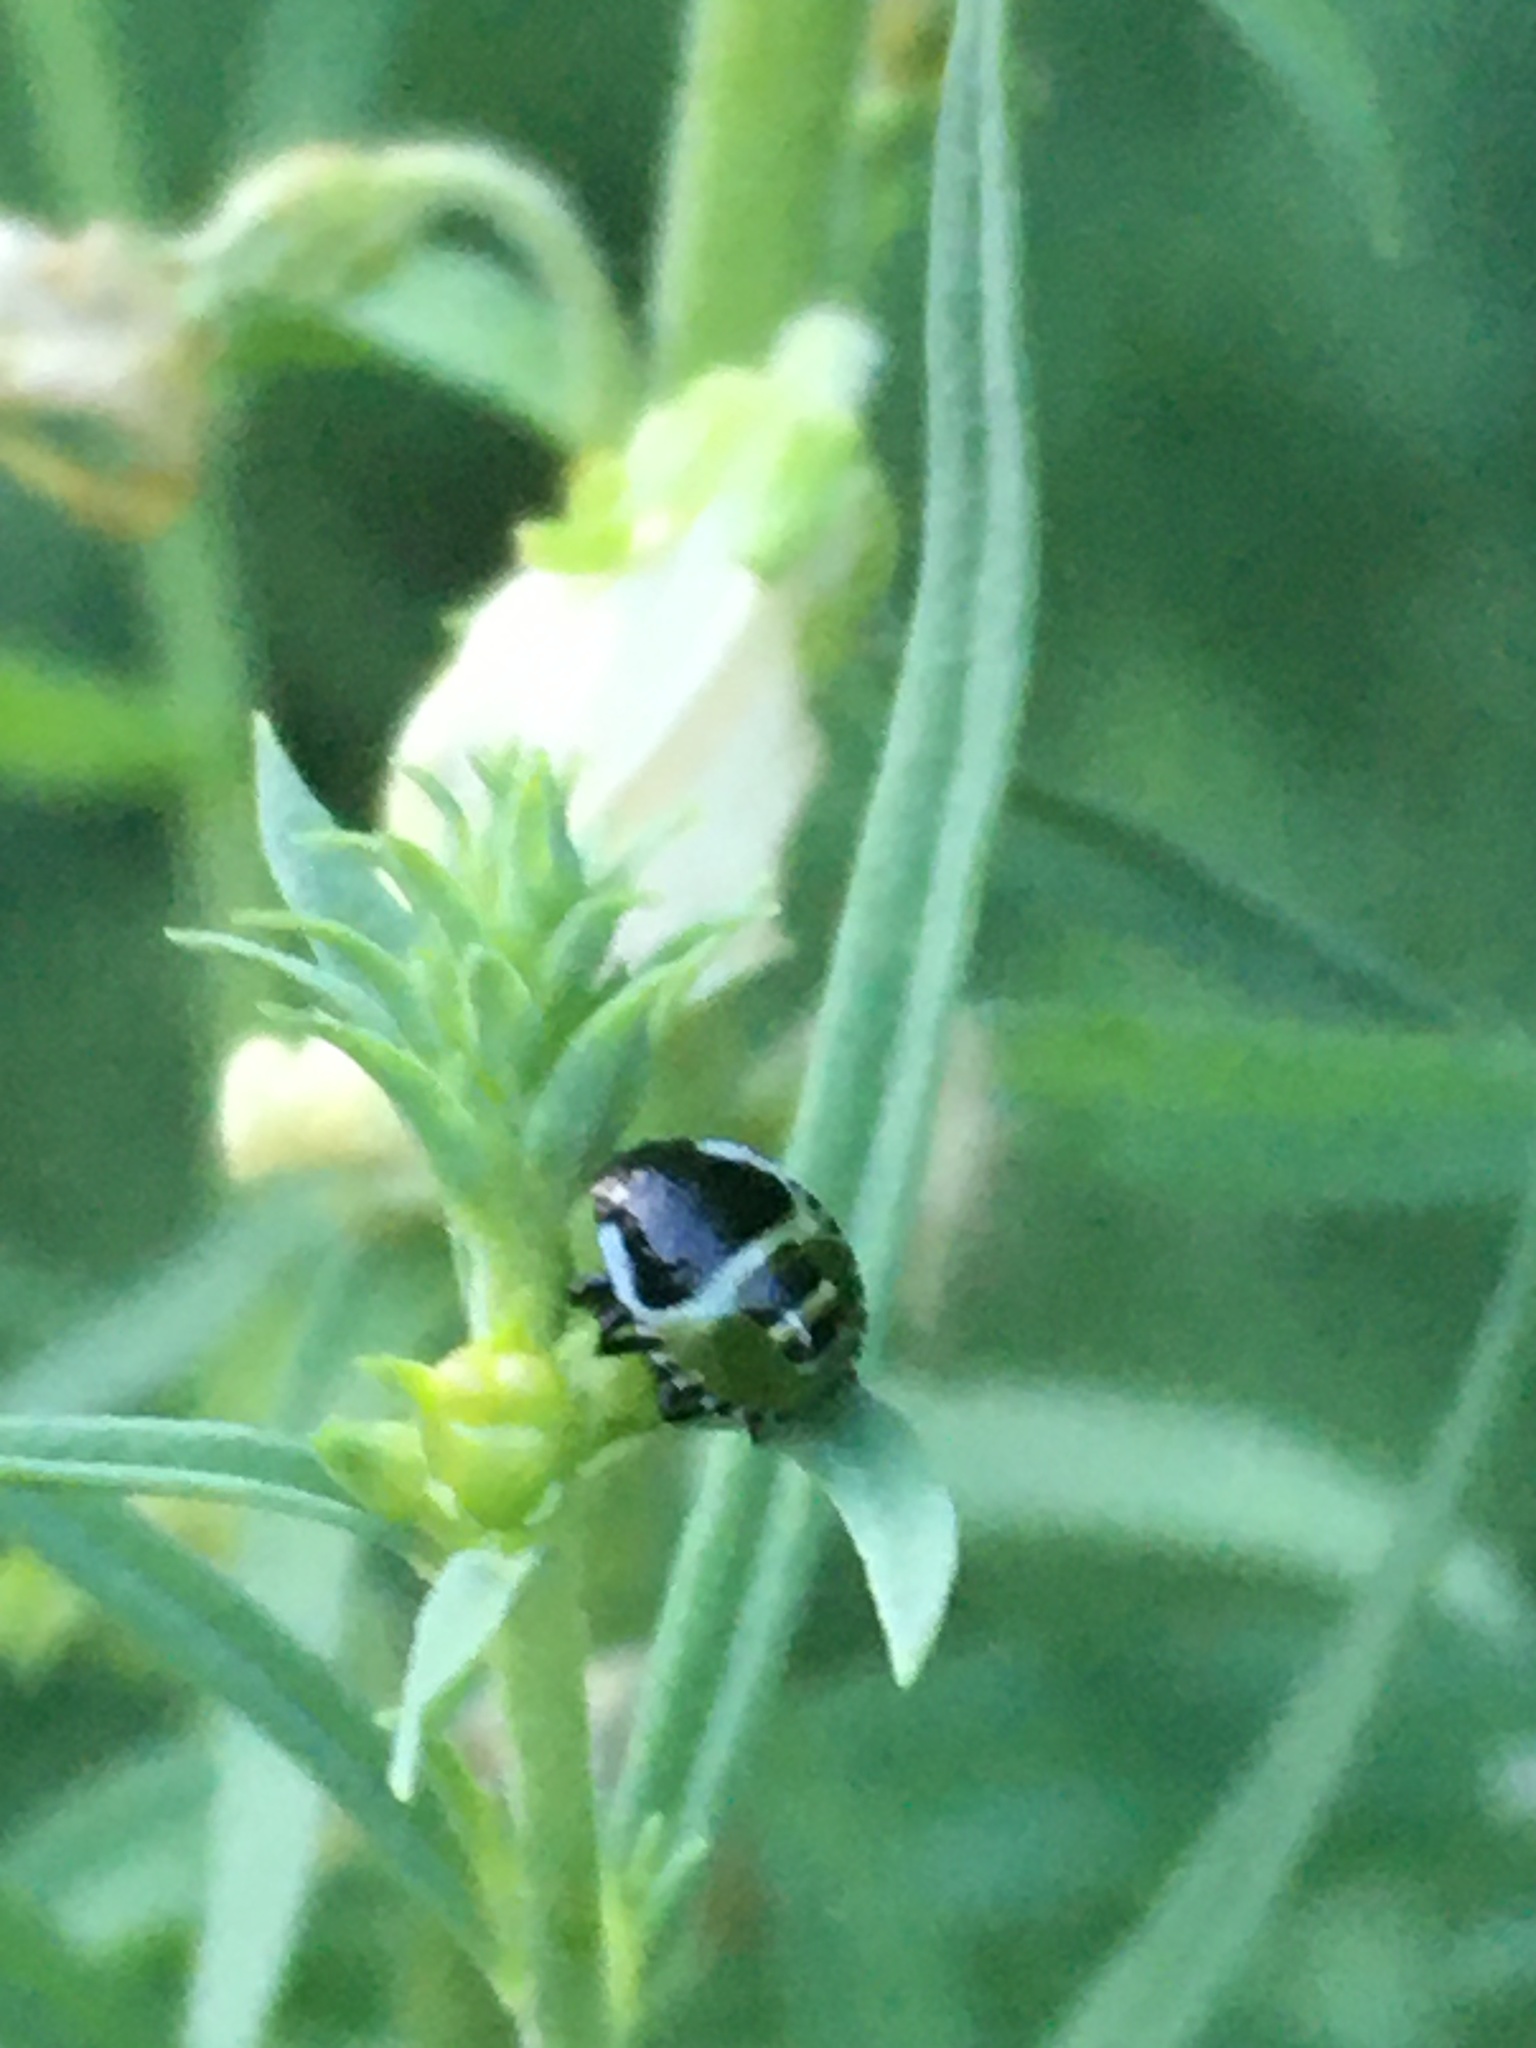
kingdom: Animalia
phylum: Arthropoda
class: Insecta
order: Hemiptera
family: Pentatomidae
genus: Palomena
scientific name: Palomena prasina
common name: Green shieldbug
